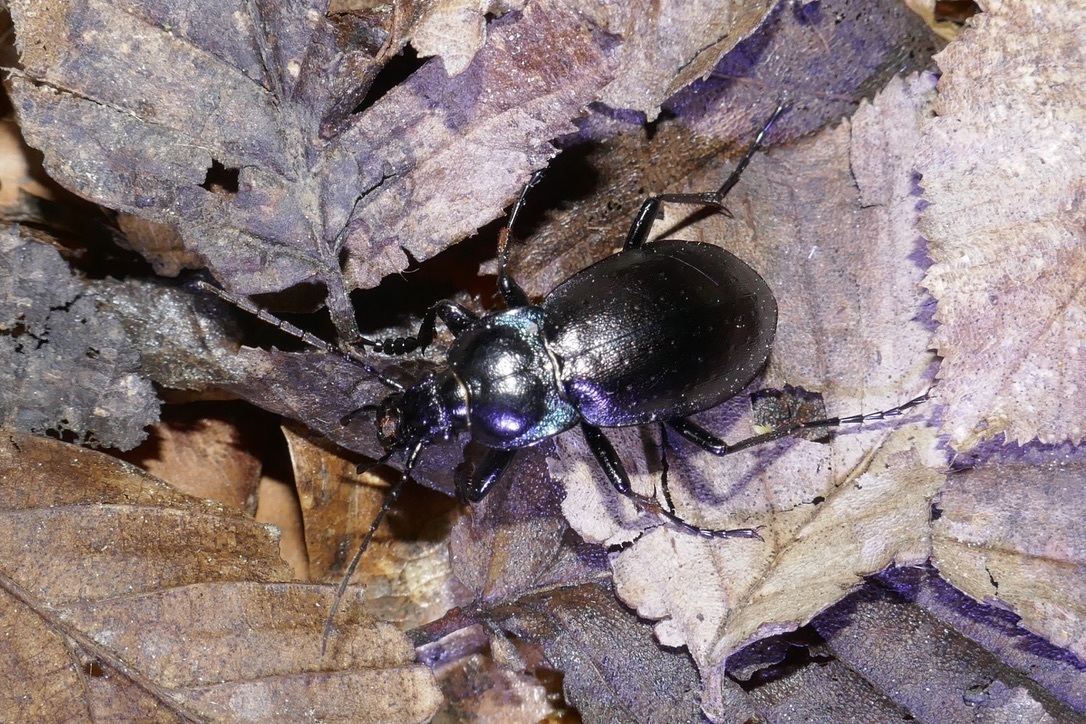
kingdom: Animalia
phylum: Arthropoda
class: Insecta
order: Coleoptera
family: Carabidae
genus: Carabus
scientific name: Carabus nemoralis
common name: European ground beetle
